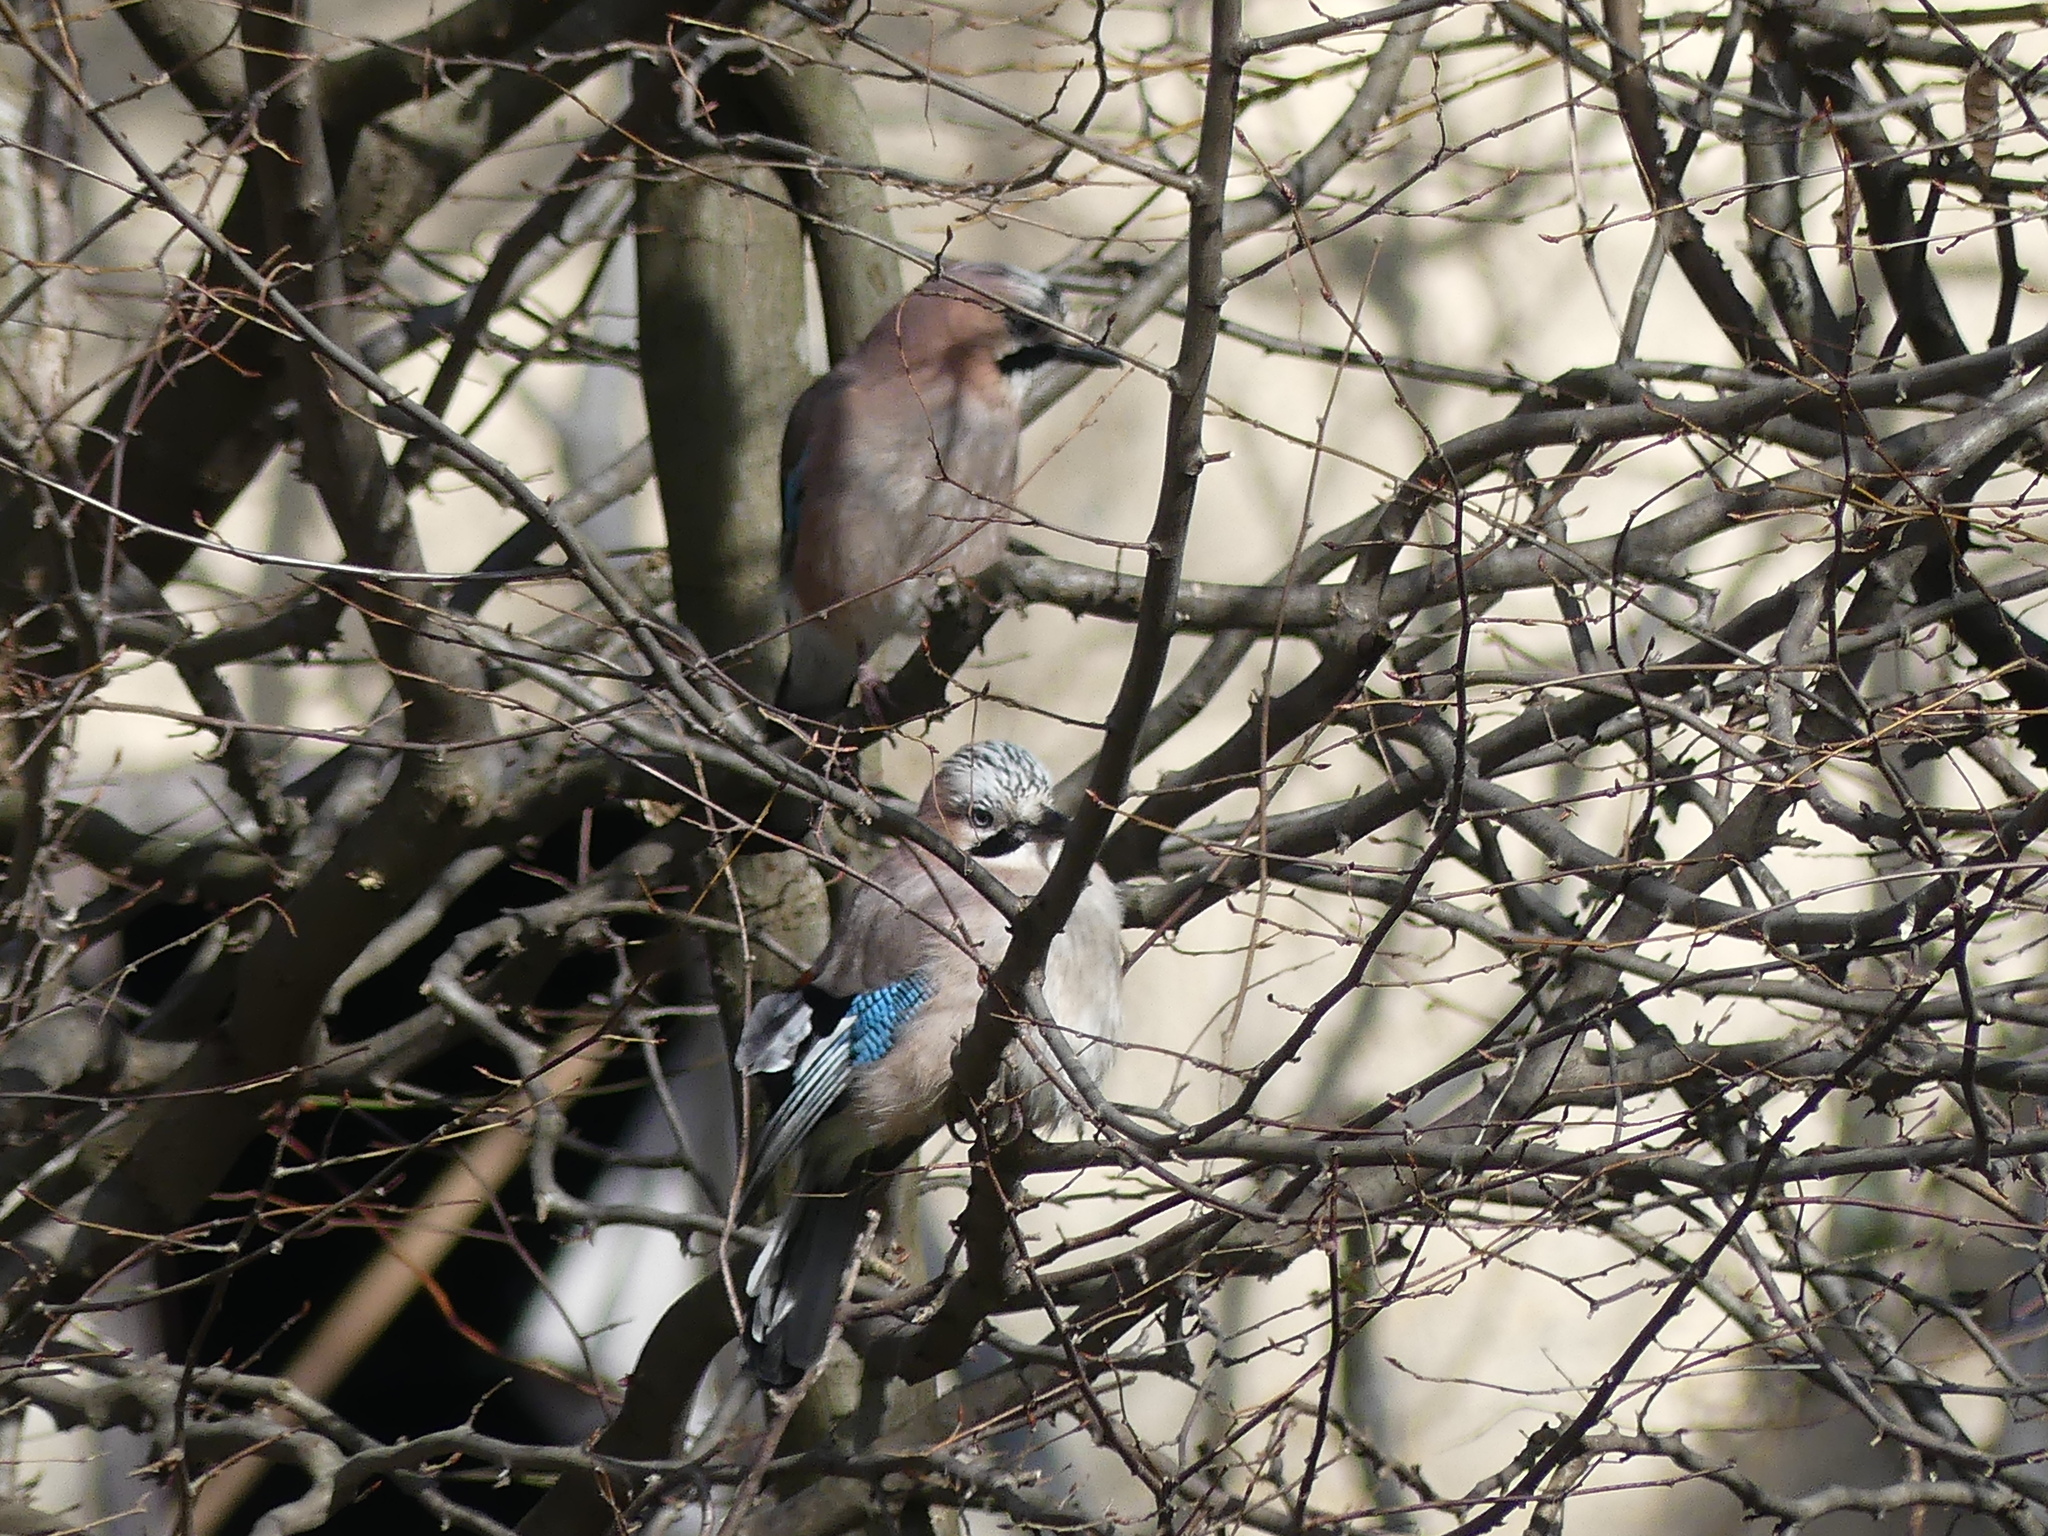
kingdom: Animalia
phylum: Chordata
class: Aves
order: Passeriformes
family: Corvidae
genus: Garrulus
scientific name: Garrulus glandarius
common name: Eurasian jay
